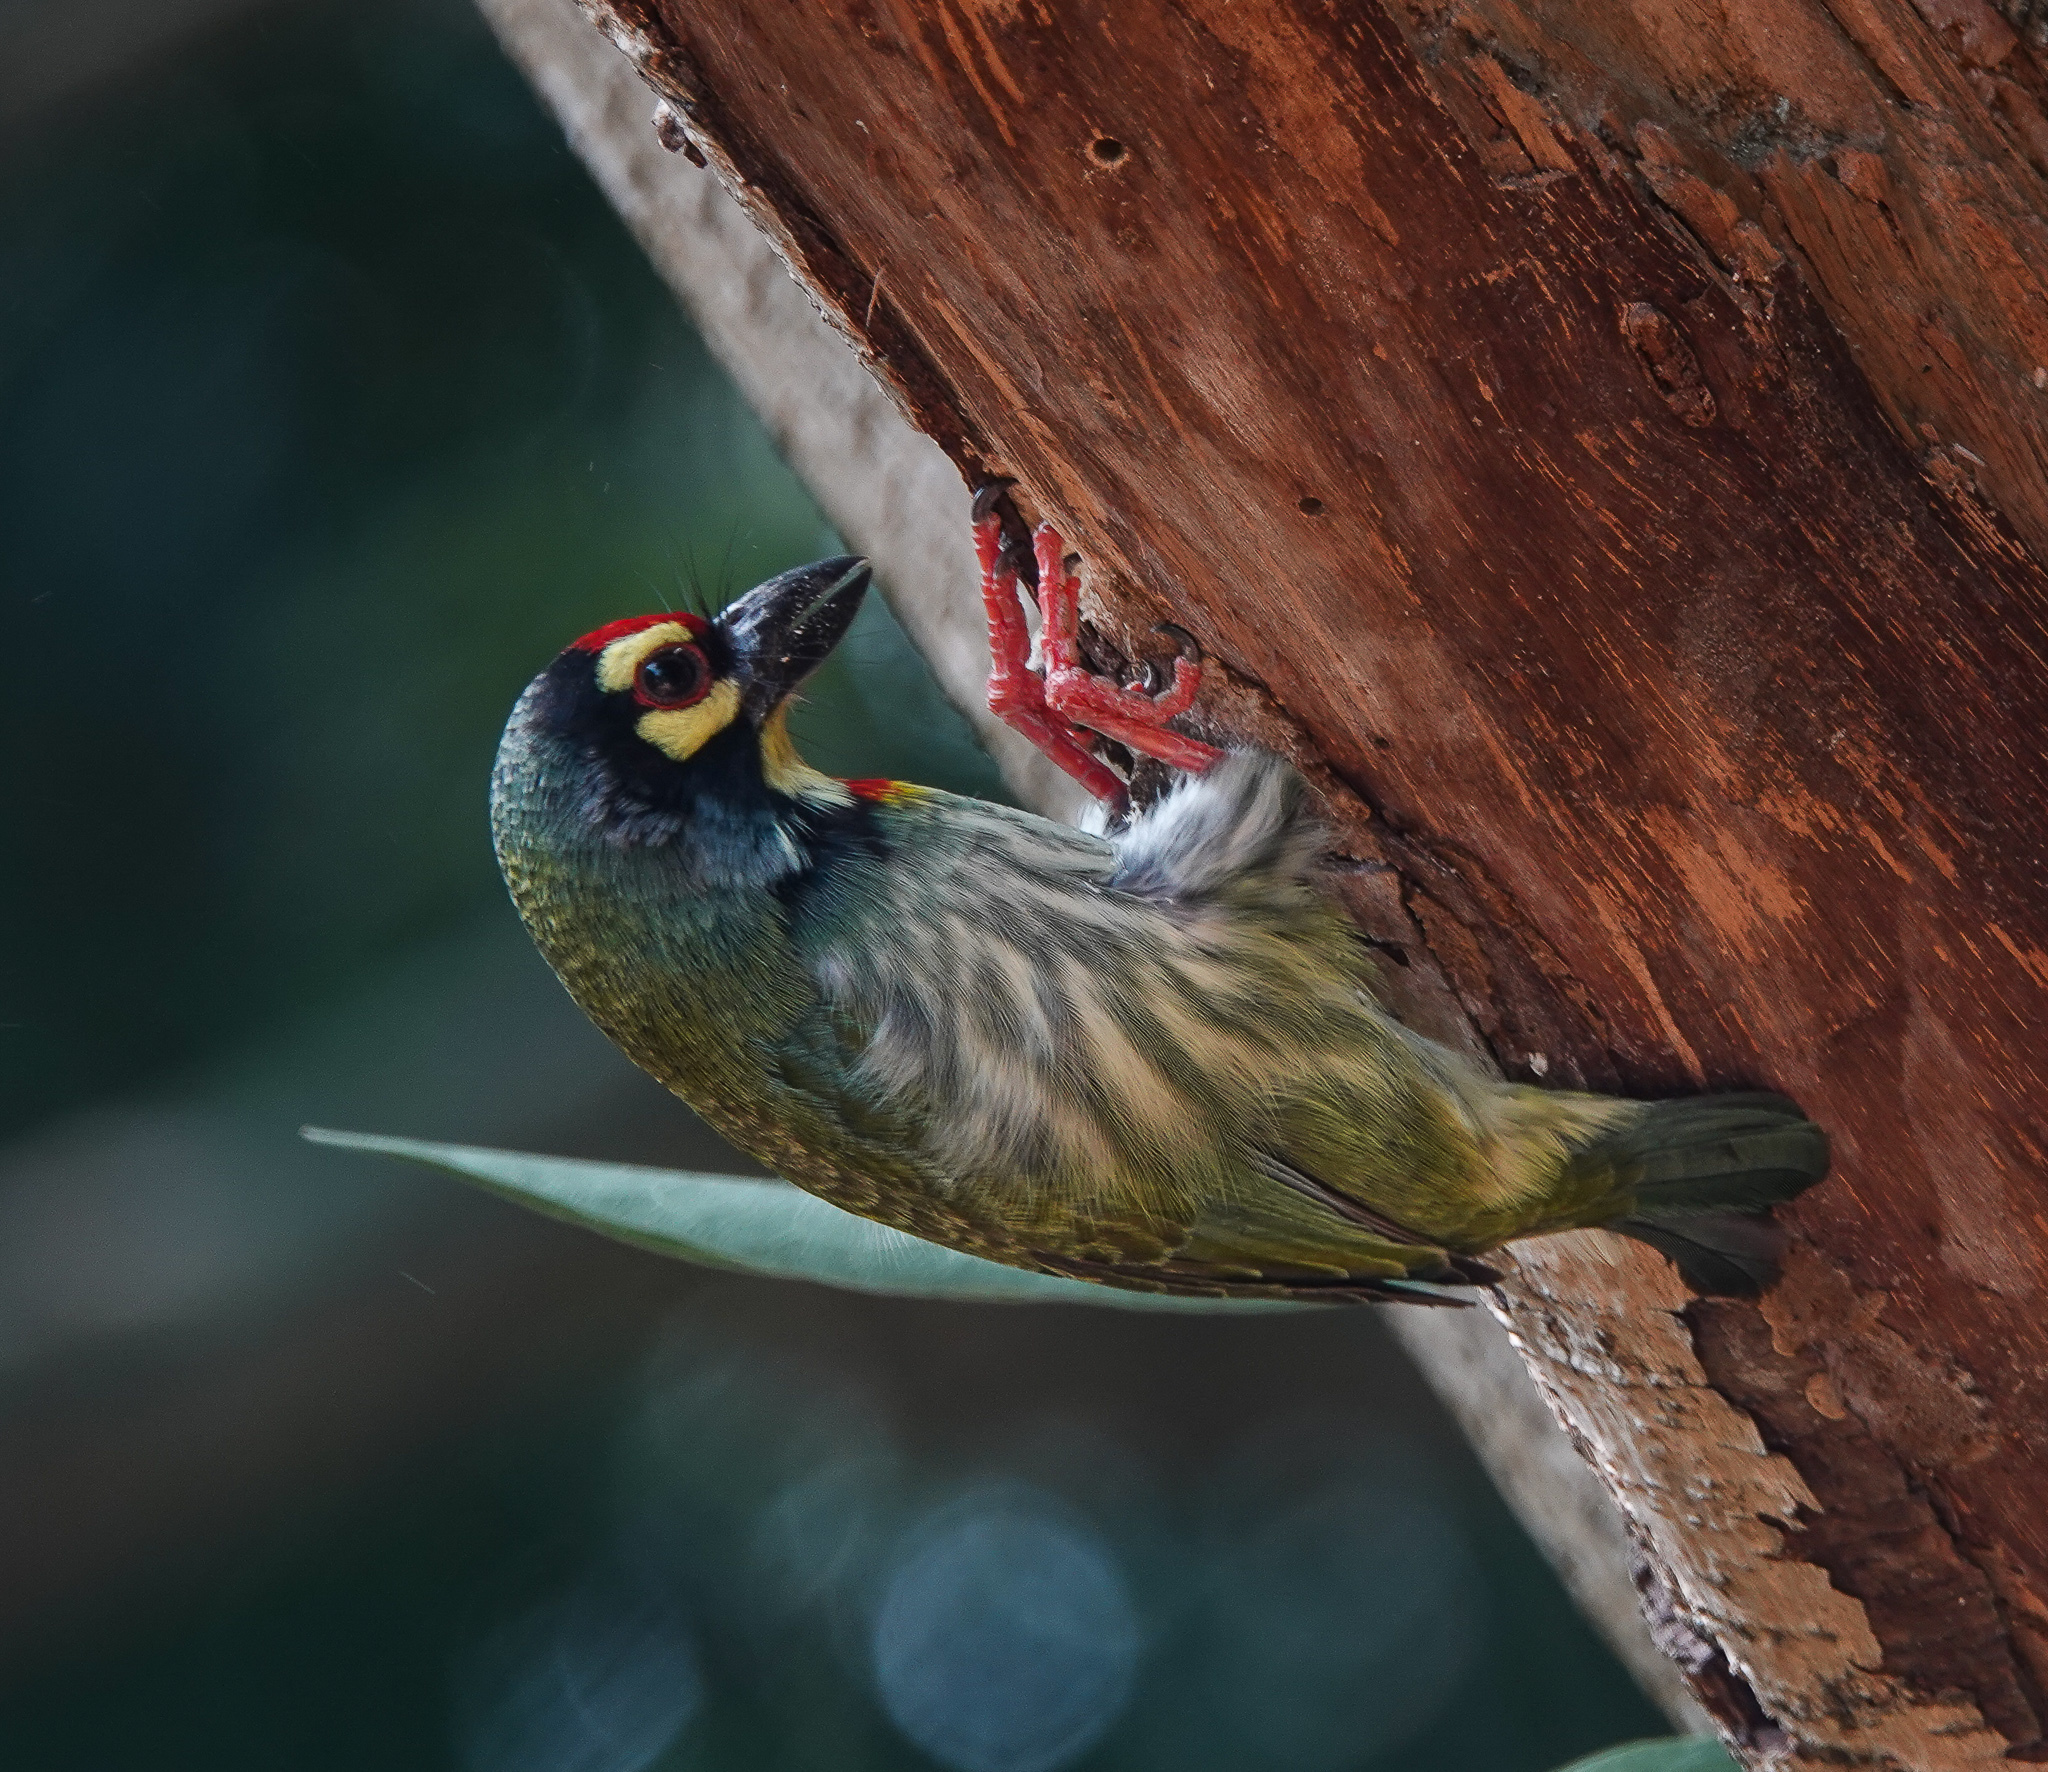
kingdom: Animalia
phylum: Chordata
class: Aves
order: Piciformes
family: Megalaimidae
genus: Psilopogon
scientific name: Psilopogon haemacephalus
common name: Coppersmith barbet
